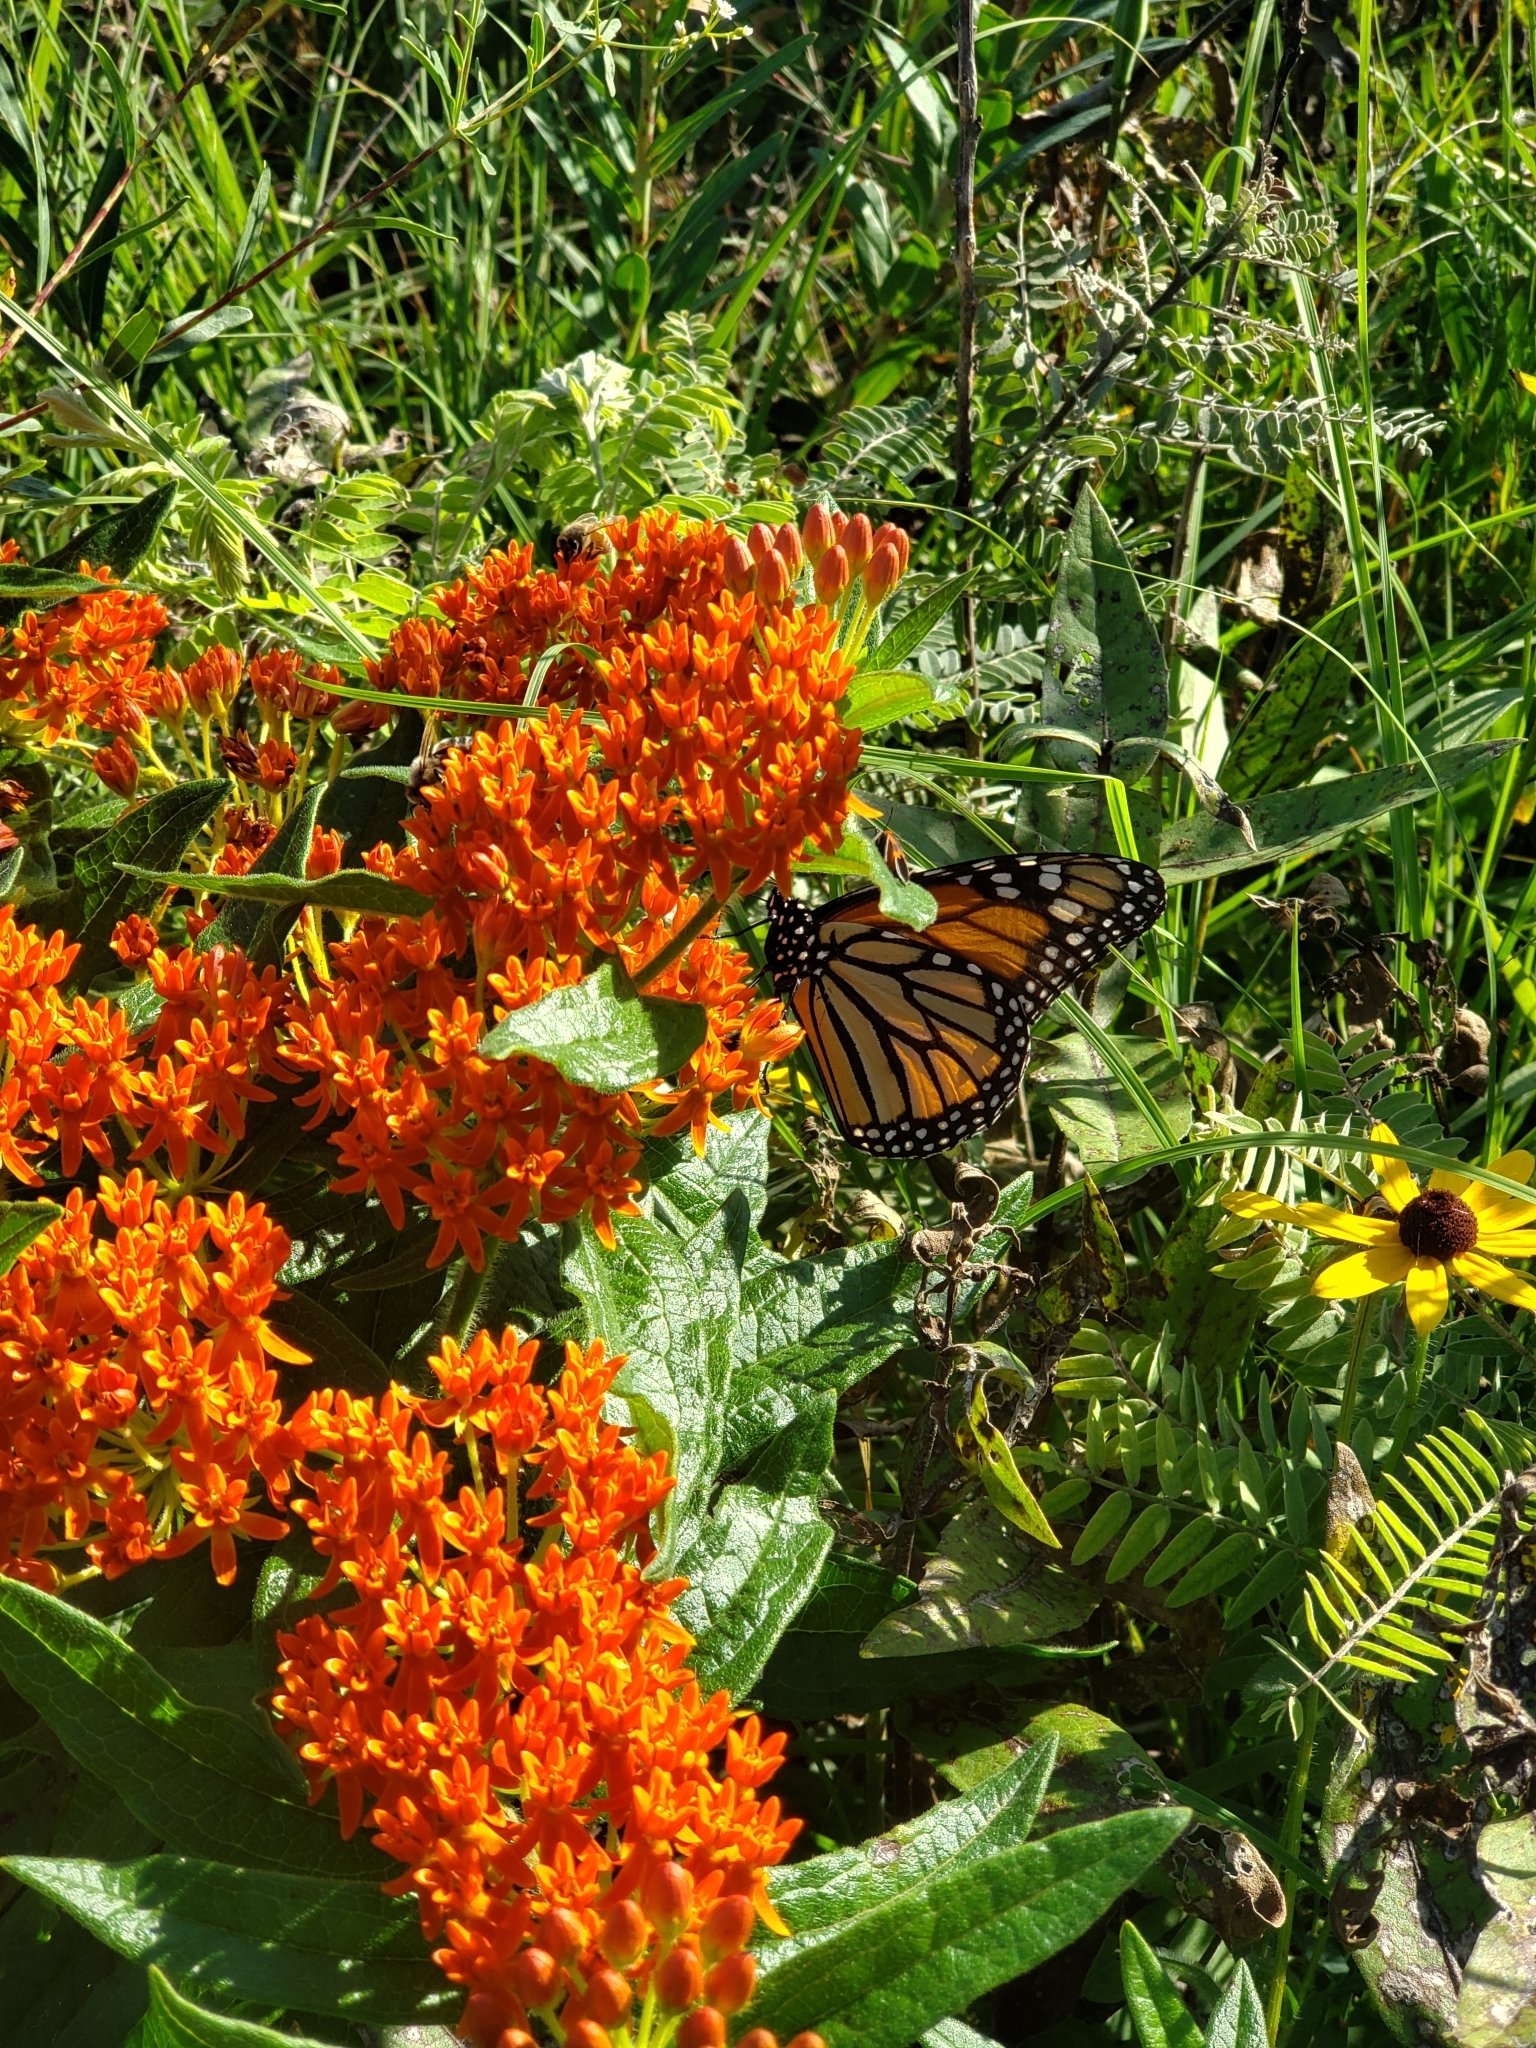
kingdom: Plantae
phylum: Tracheophyta
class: Magnoliopsida
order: Gentianales
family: Apocynaceae
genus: Asclepias
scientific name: Asclepias tuberosa
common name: Butterfly milkweed
